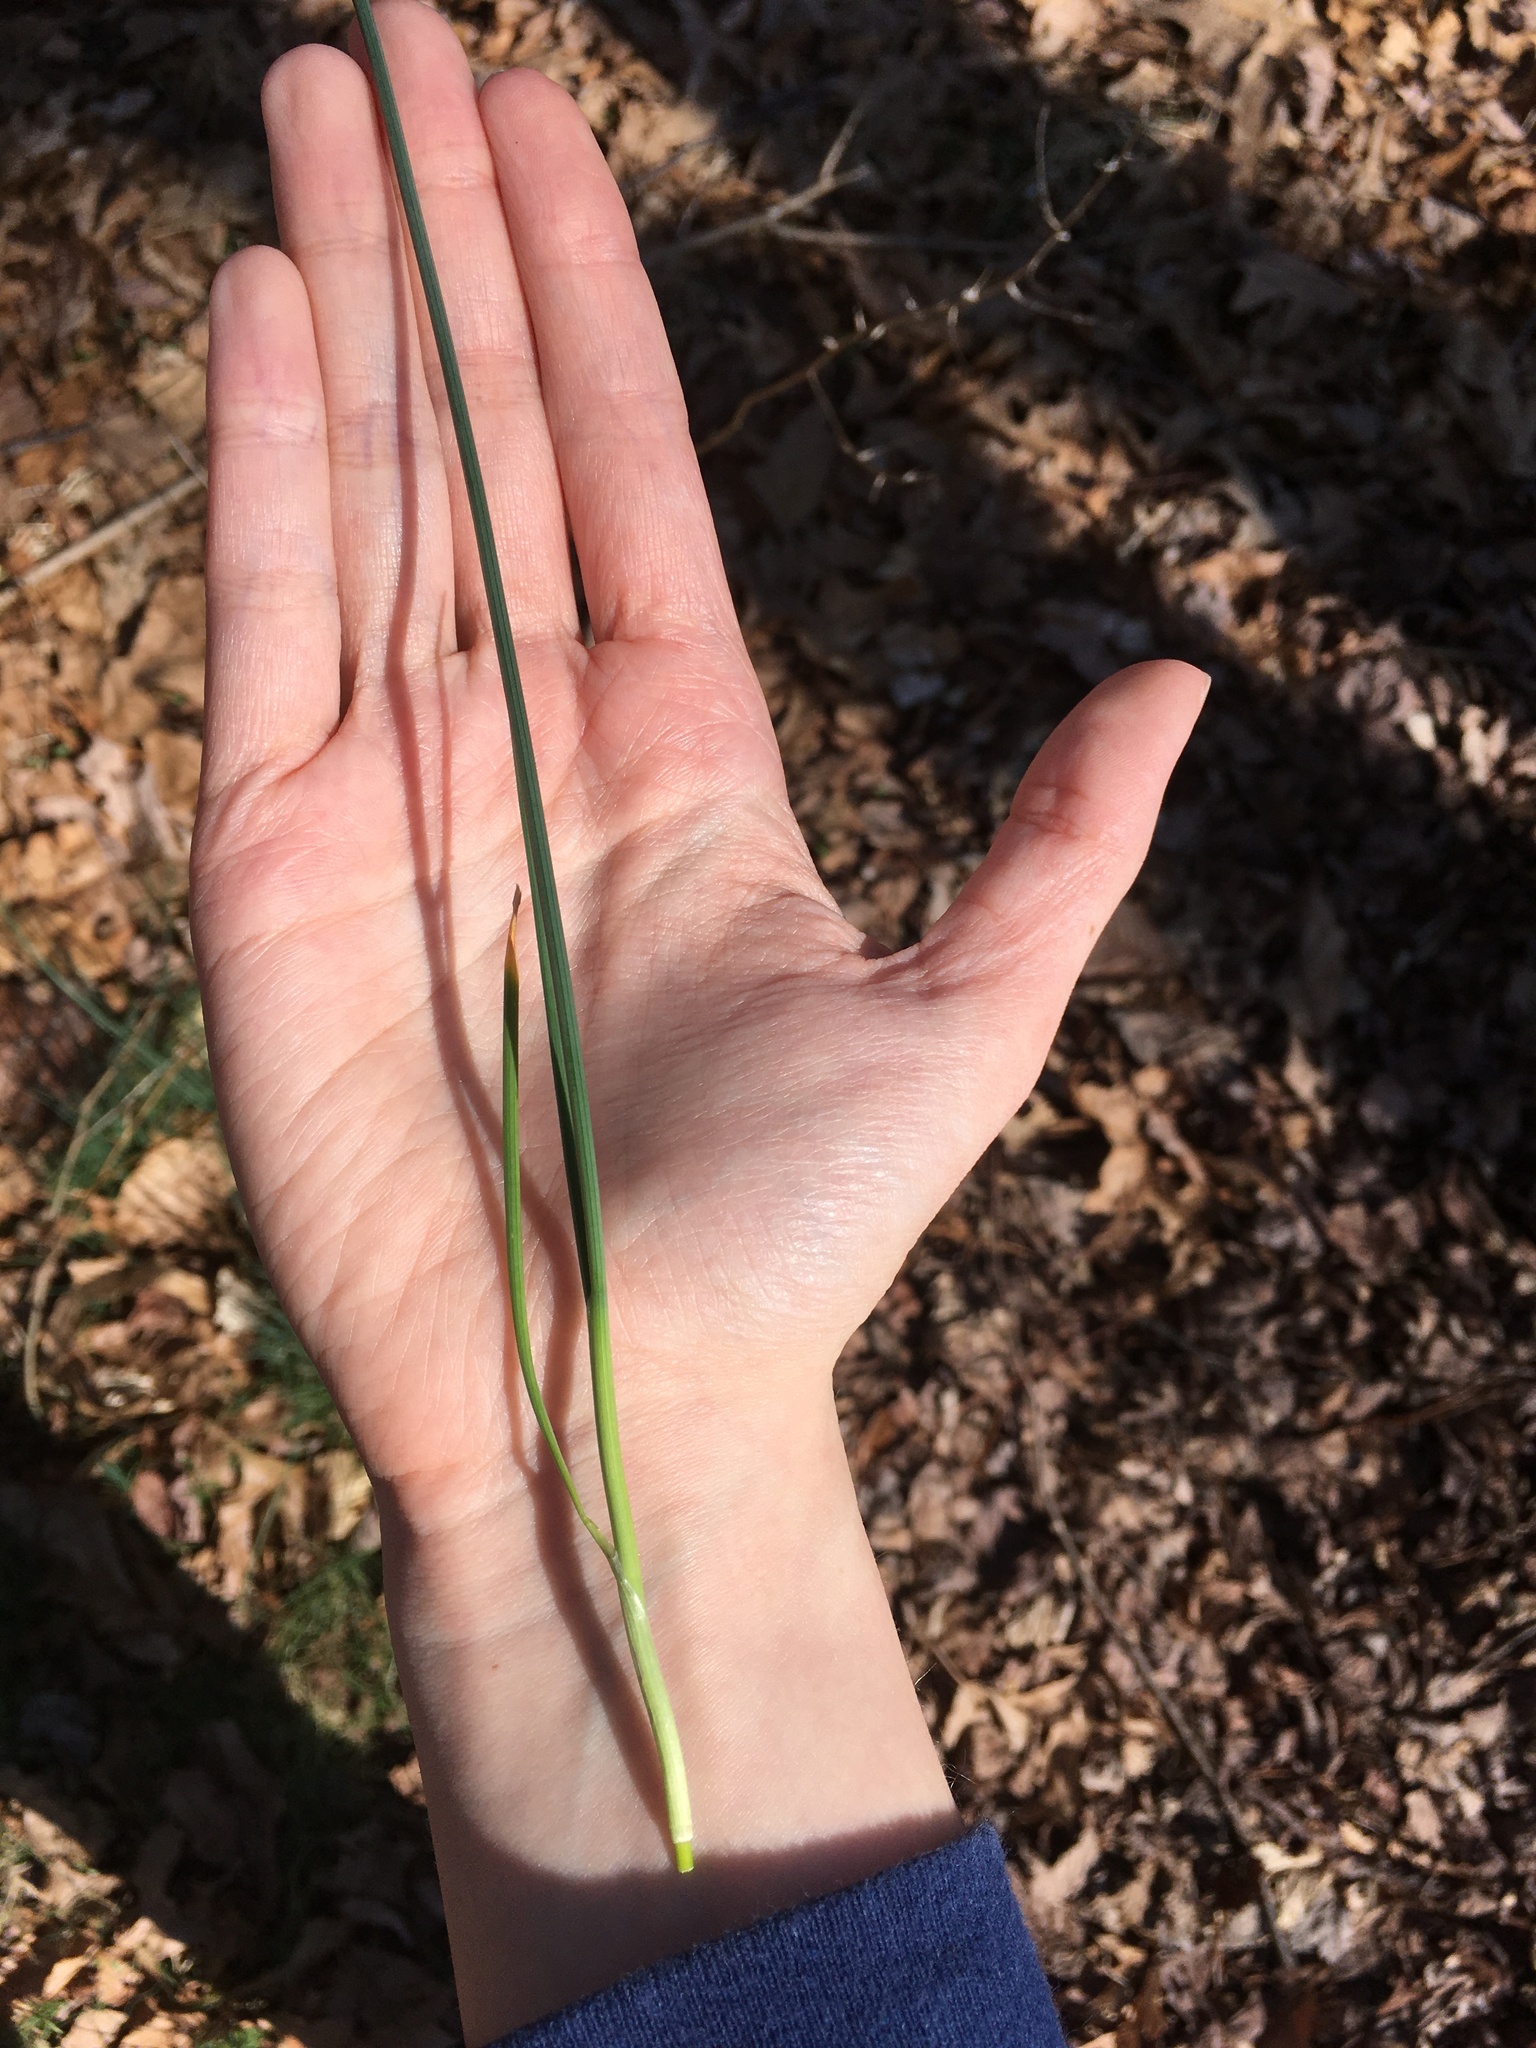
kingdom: Plantae
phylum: Tracheophyta
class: Liliopsida
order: Asparagales
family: Amaryllidaceae
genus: Allium
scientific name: Allium vineale
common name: Crow garlic
